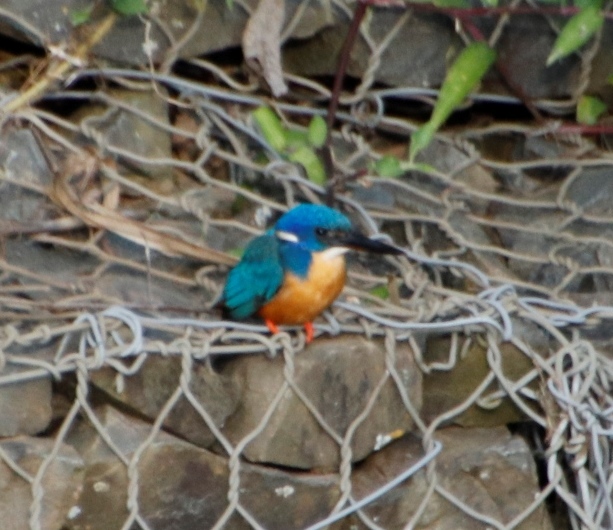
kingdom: Animalia
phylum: Chordata
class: Aves
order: Coraciiformes
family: Alcedinidae
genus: Alcedo
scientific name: Alcedo semitorquata
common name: Half-collared kingfisher
